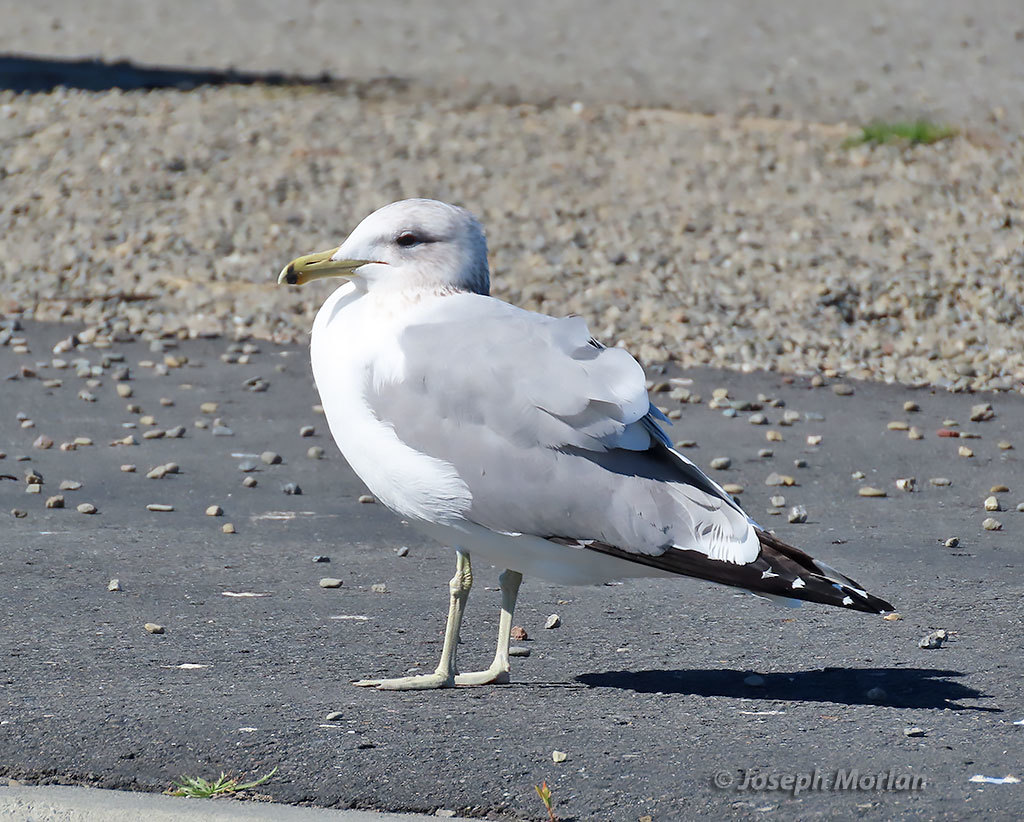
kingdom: Animalia
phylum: Chordata
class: Aves
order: Charadriiformes
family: Laridae
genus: Larus
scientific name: Larus californicus
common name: California gull
